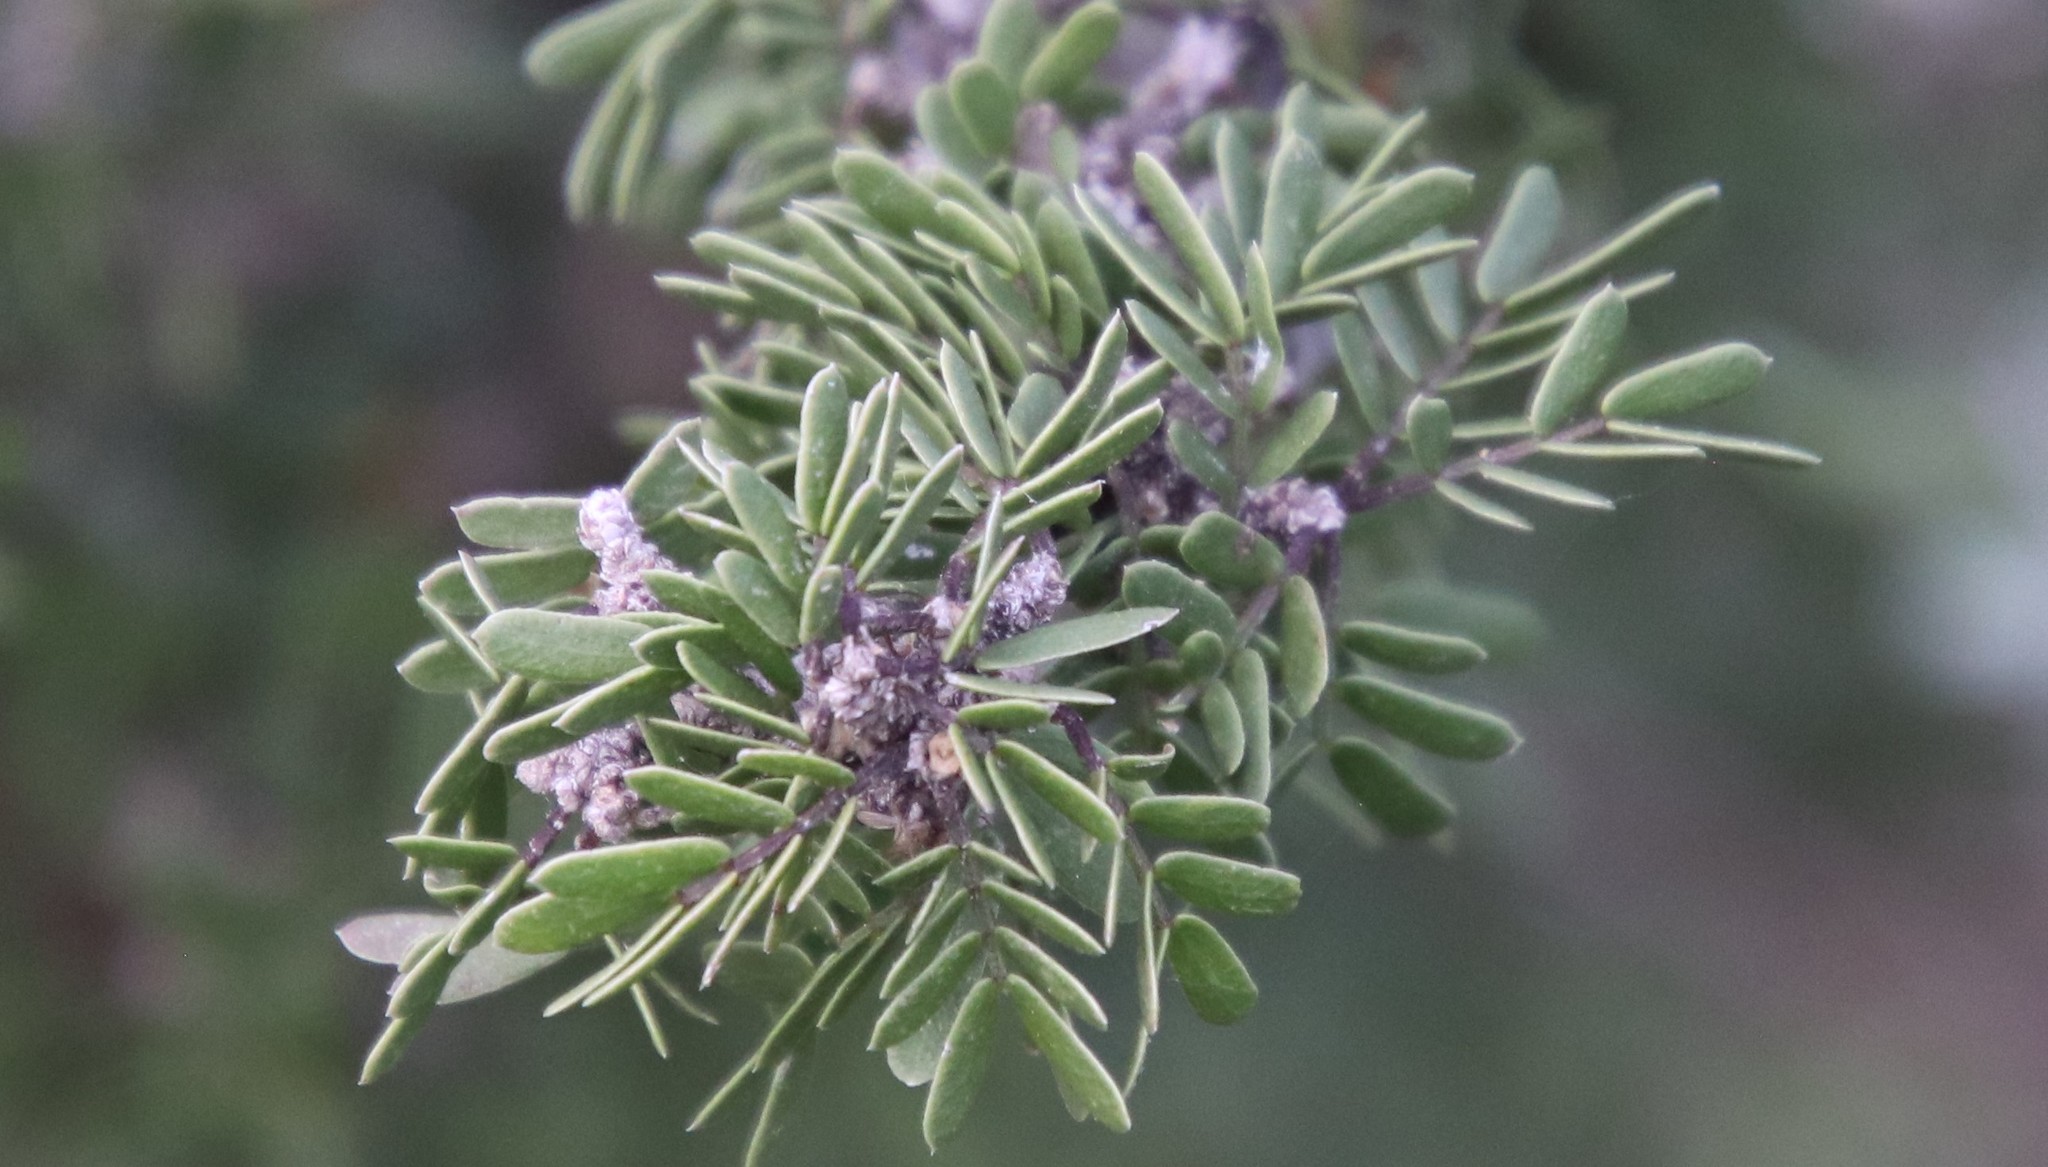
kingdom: Plantae
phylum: Tracheophyta
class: Magnoliopsida
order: Zygophyllales
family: Zygophyllaceae
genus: Porlieria
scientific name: Porlieria angustifolia
